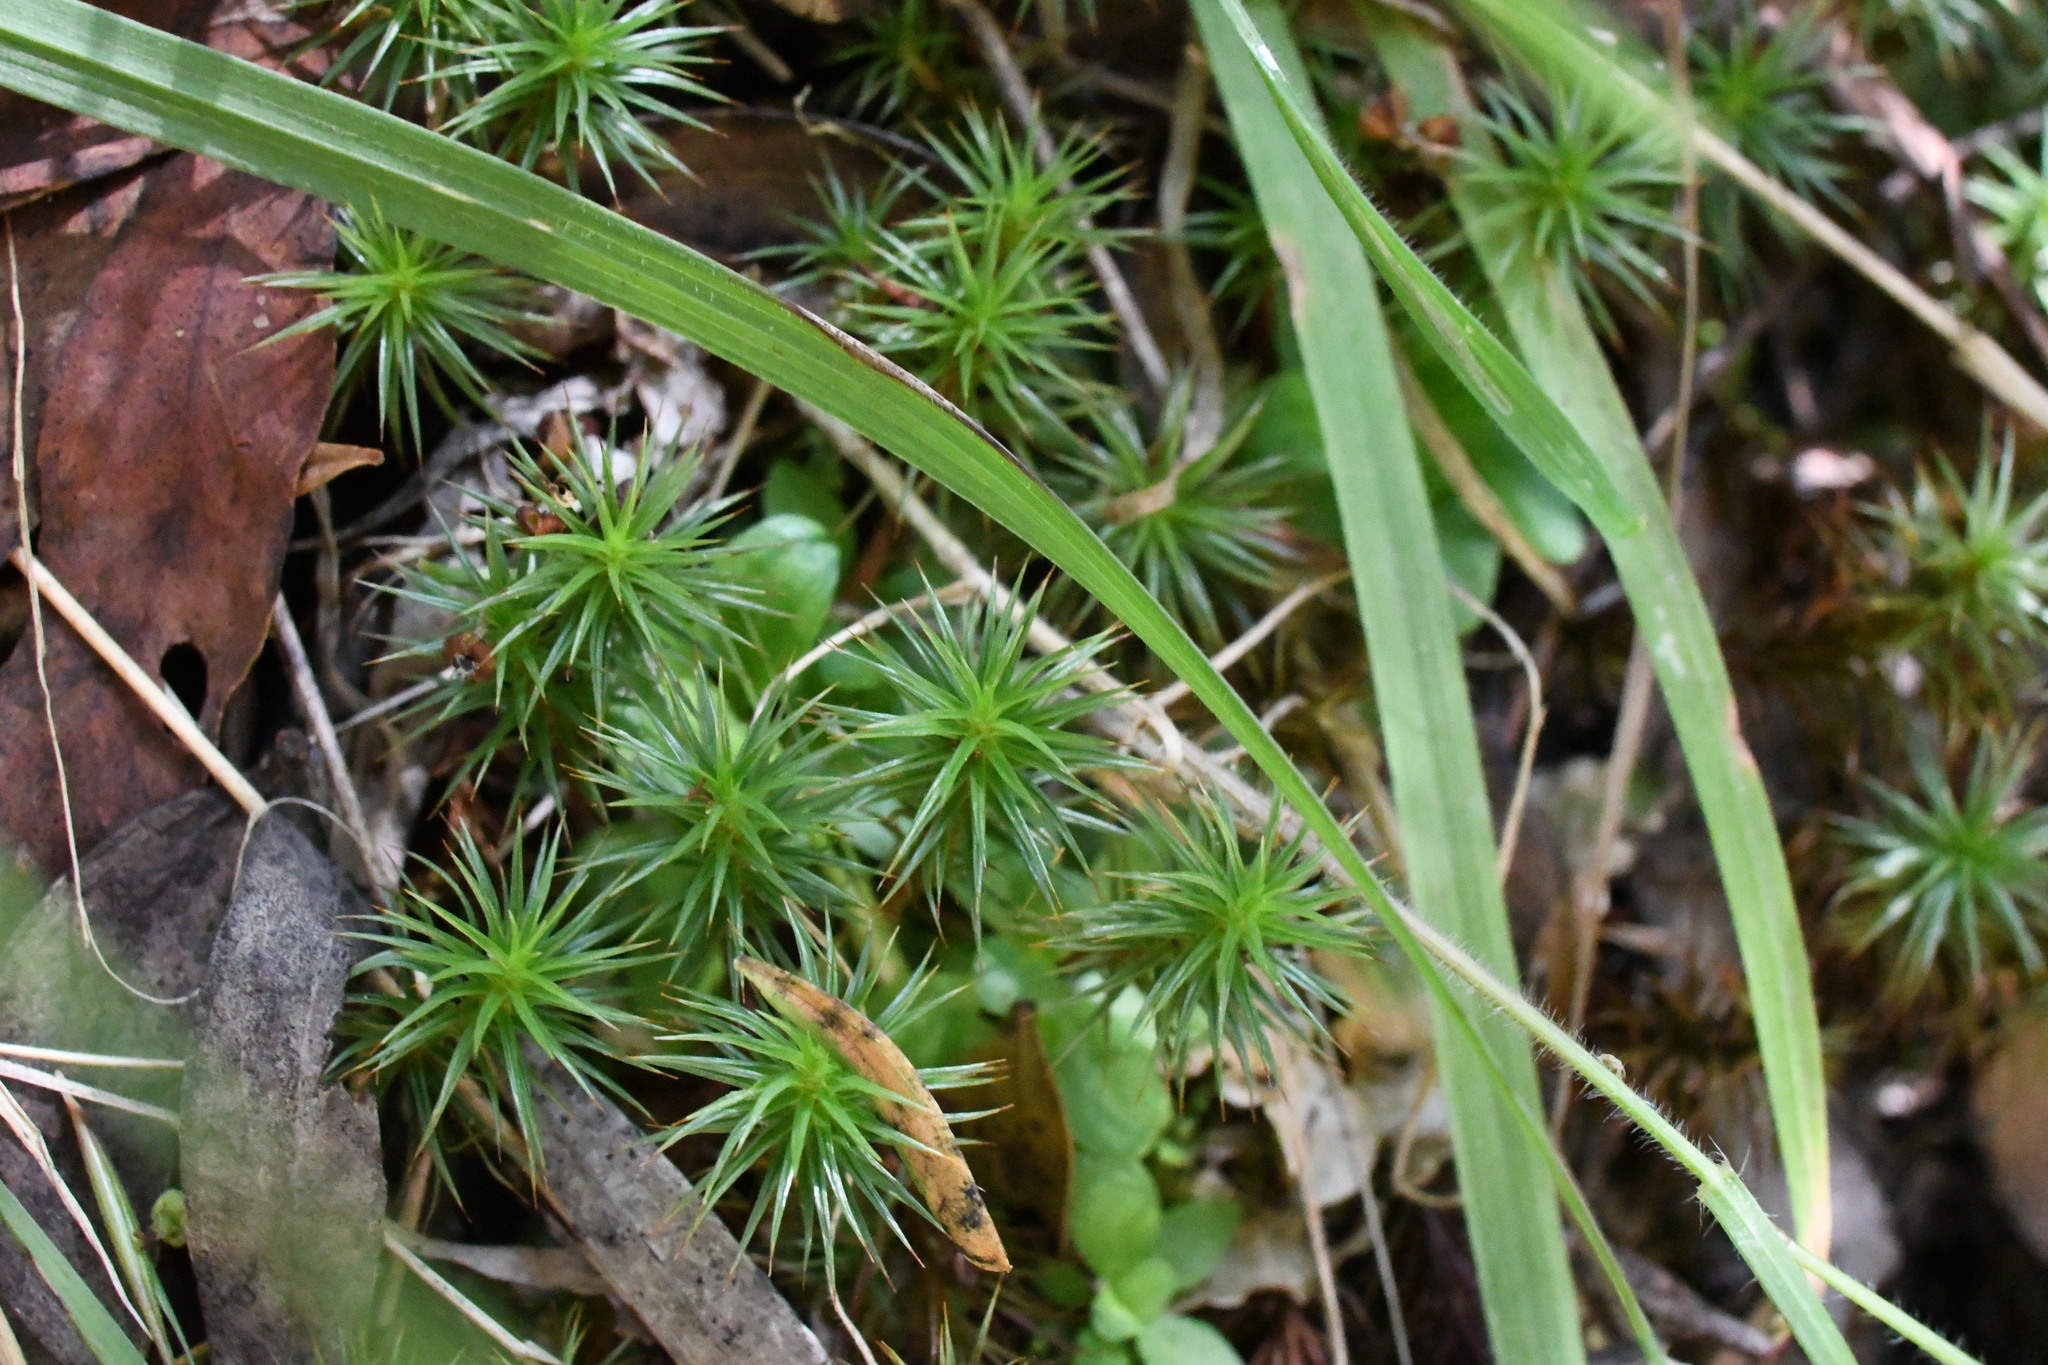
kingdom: Plantae
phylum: Bryophyta
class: Polytrichopsida
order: Polytrichales
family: Polytrichaceae
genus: Polytrichum
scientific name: Polytrichum juniperinum
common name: Juniper haircap moss
